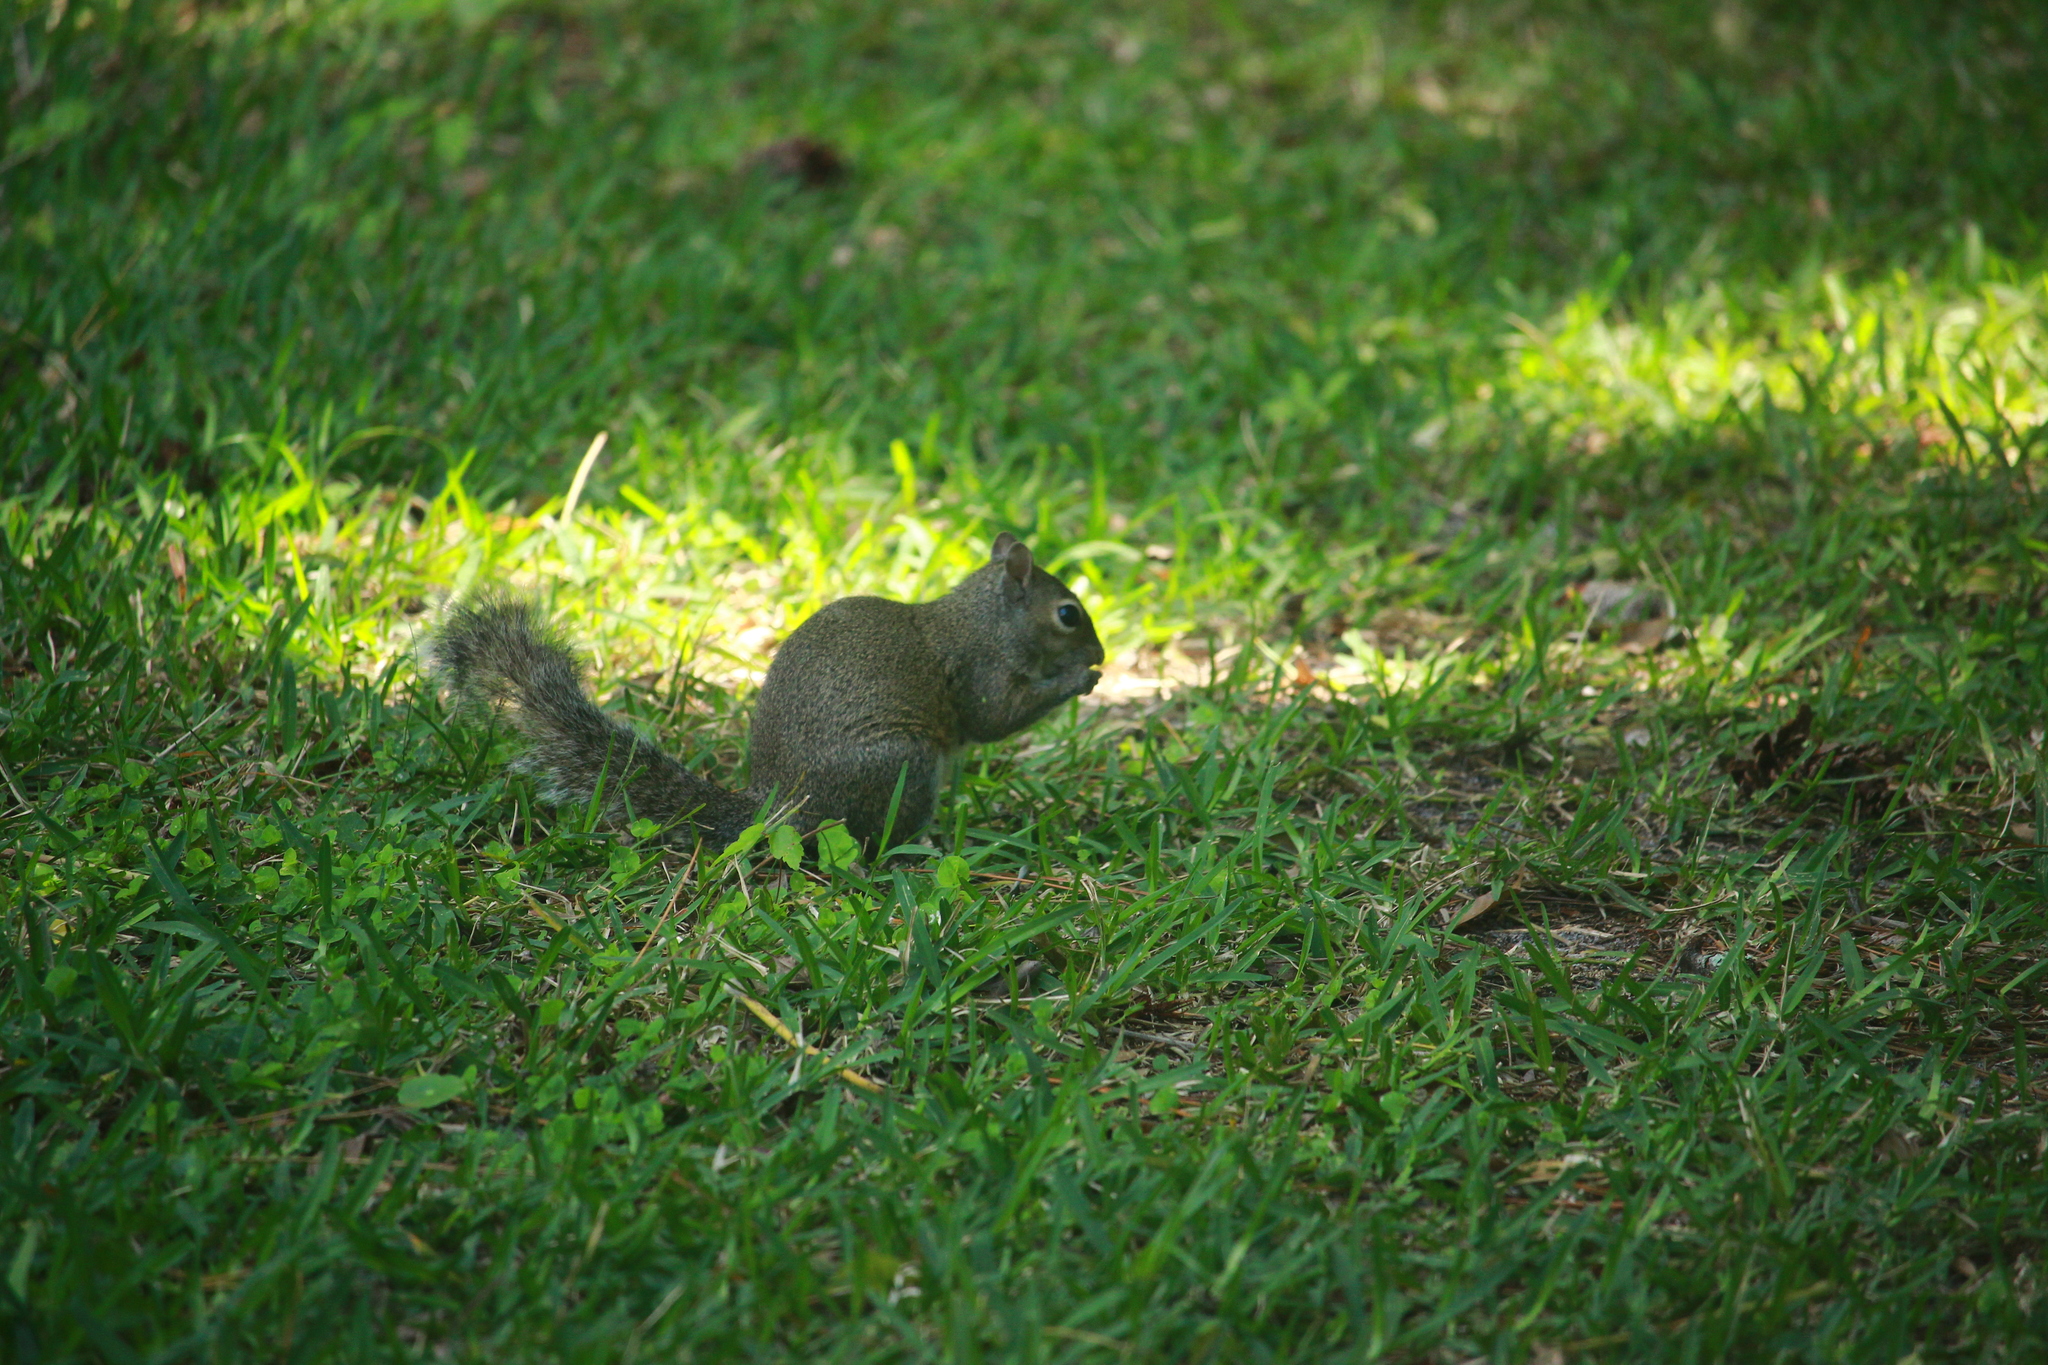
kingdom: Animalia
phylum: Chordata
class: Mammalia
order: Rodentia
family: Sciuridae
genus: Sciurus
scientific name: Sciurus carolinensis
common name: Eastern gray squirrel
